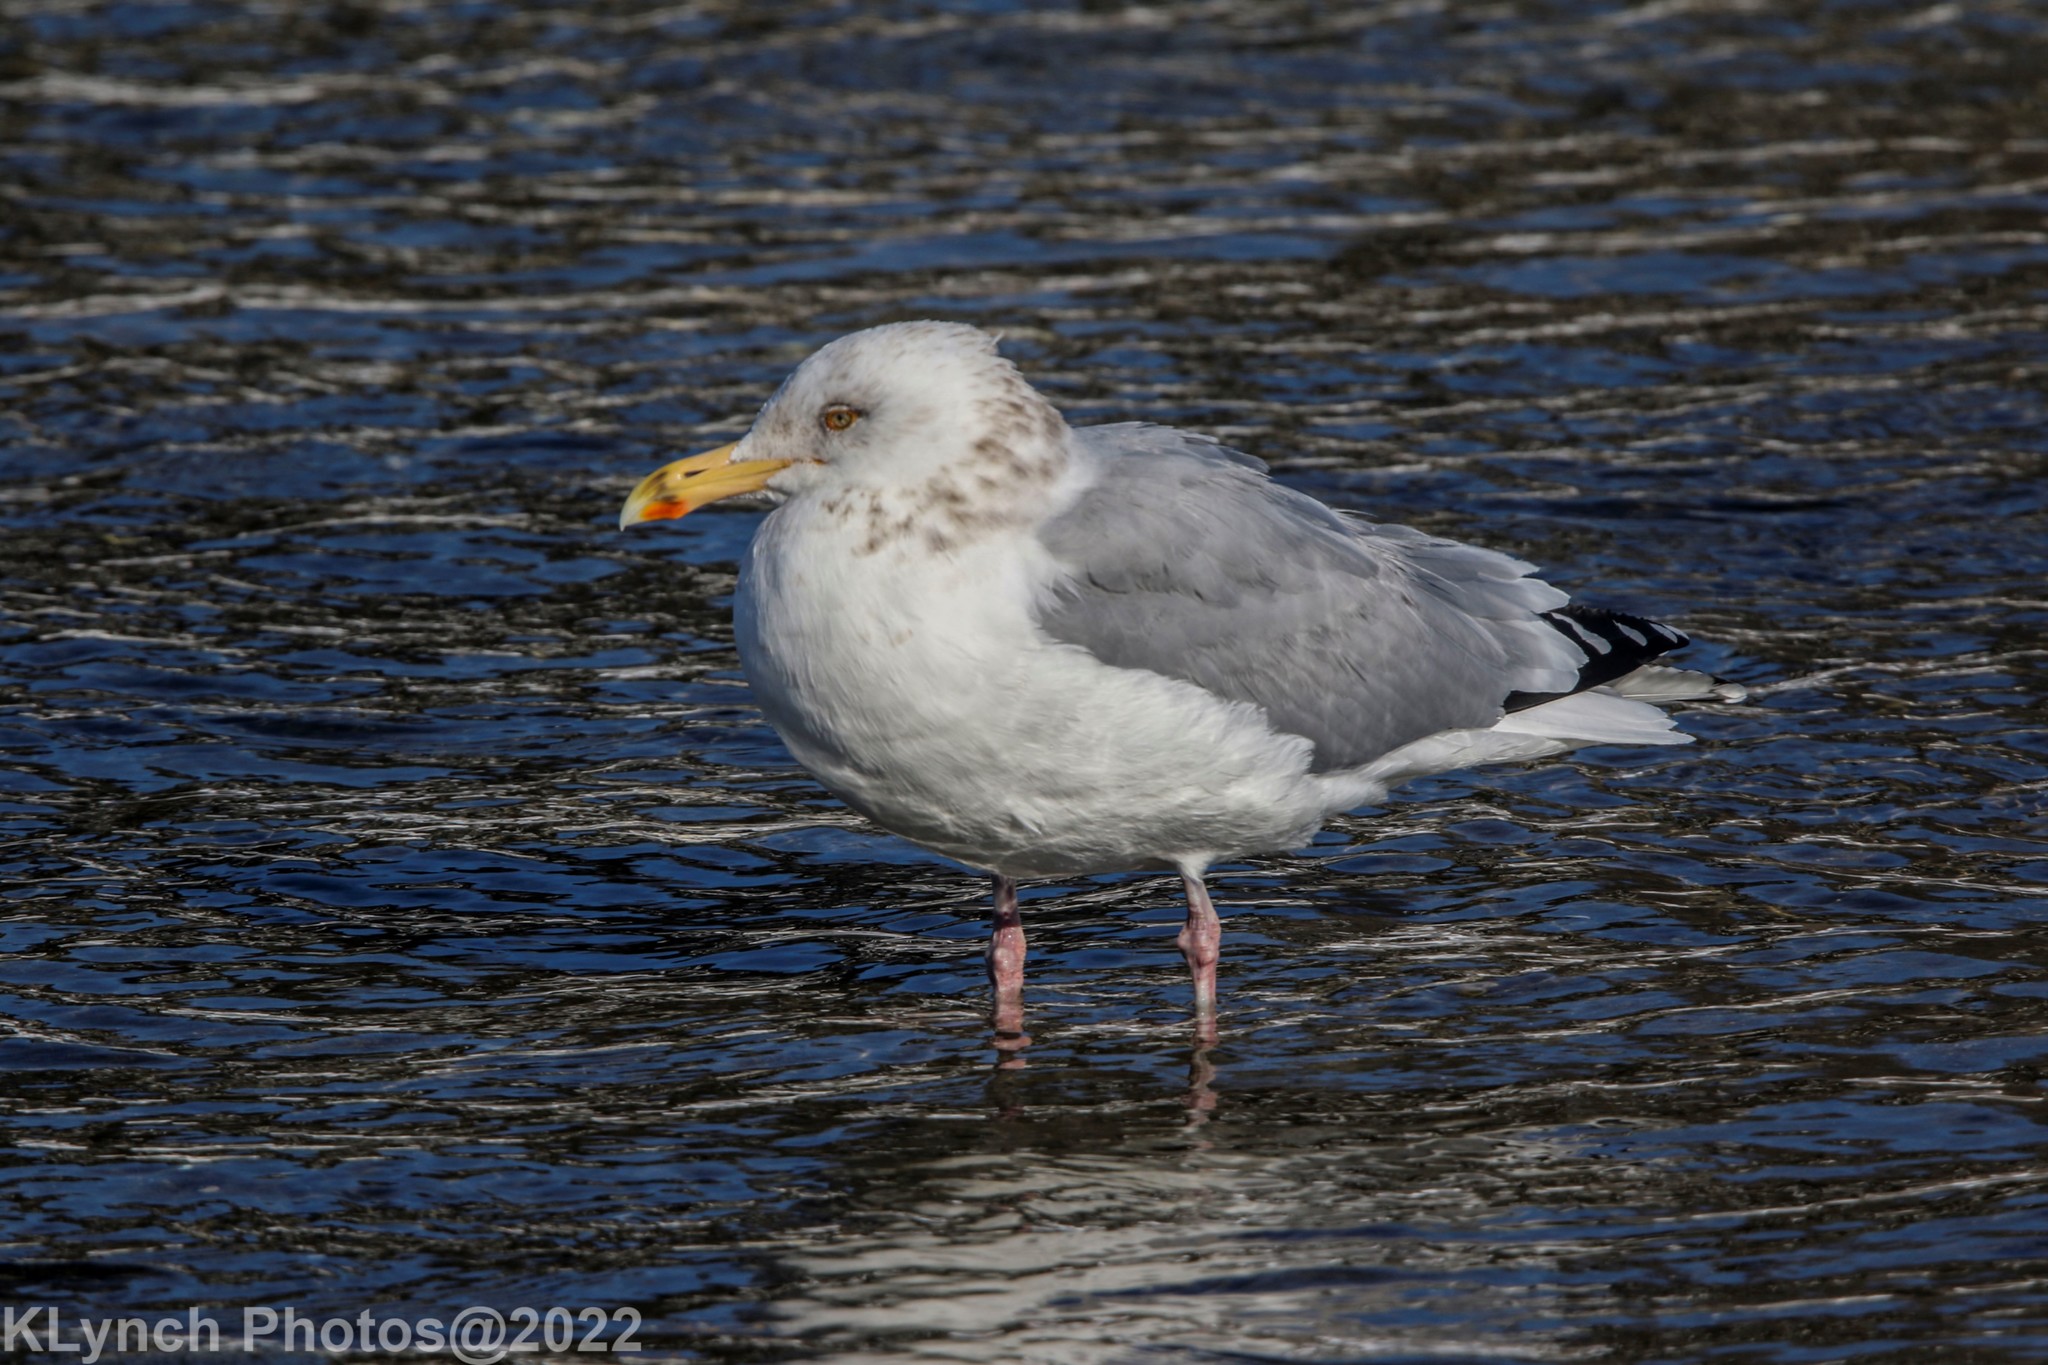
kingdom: Animalia
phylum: Chordata
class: Aves
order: Charadriiformes
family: Laridae
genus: Larus
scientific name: Larus argentatus
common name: Herring gull
